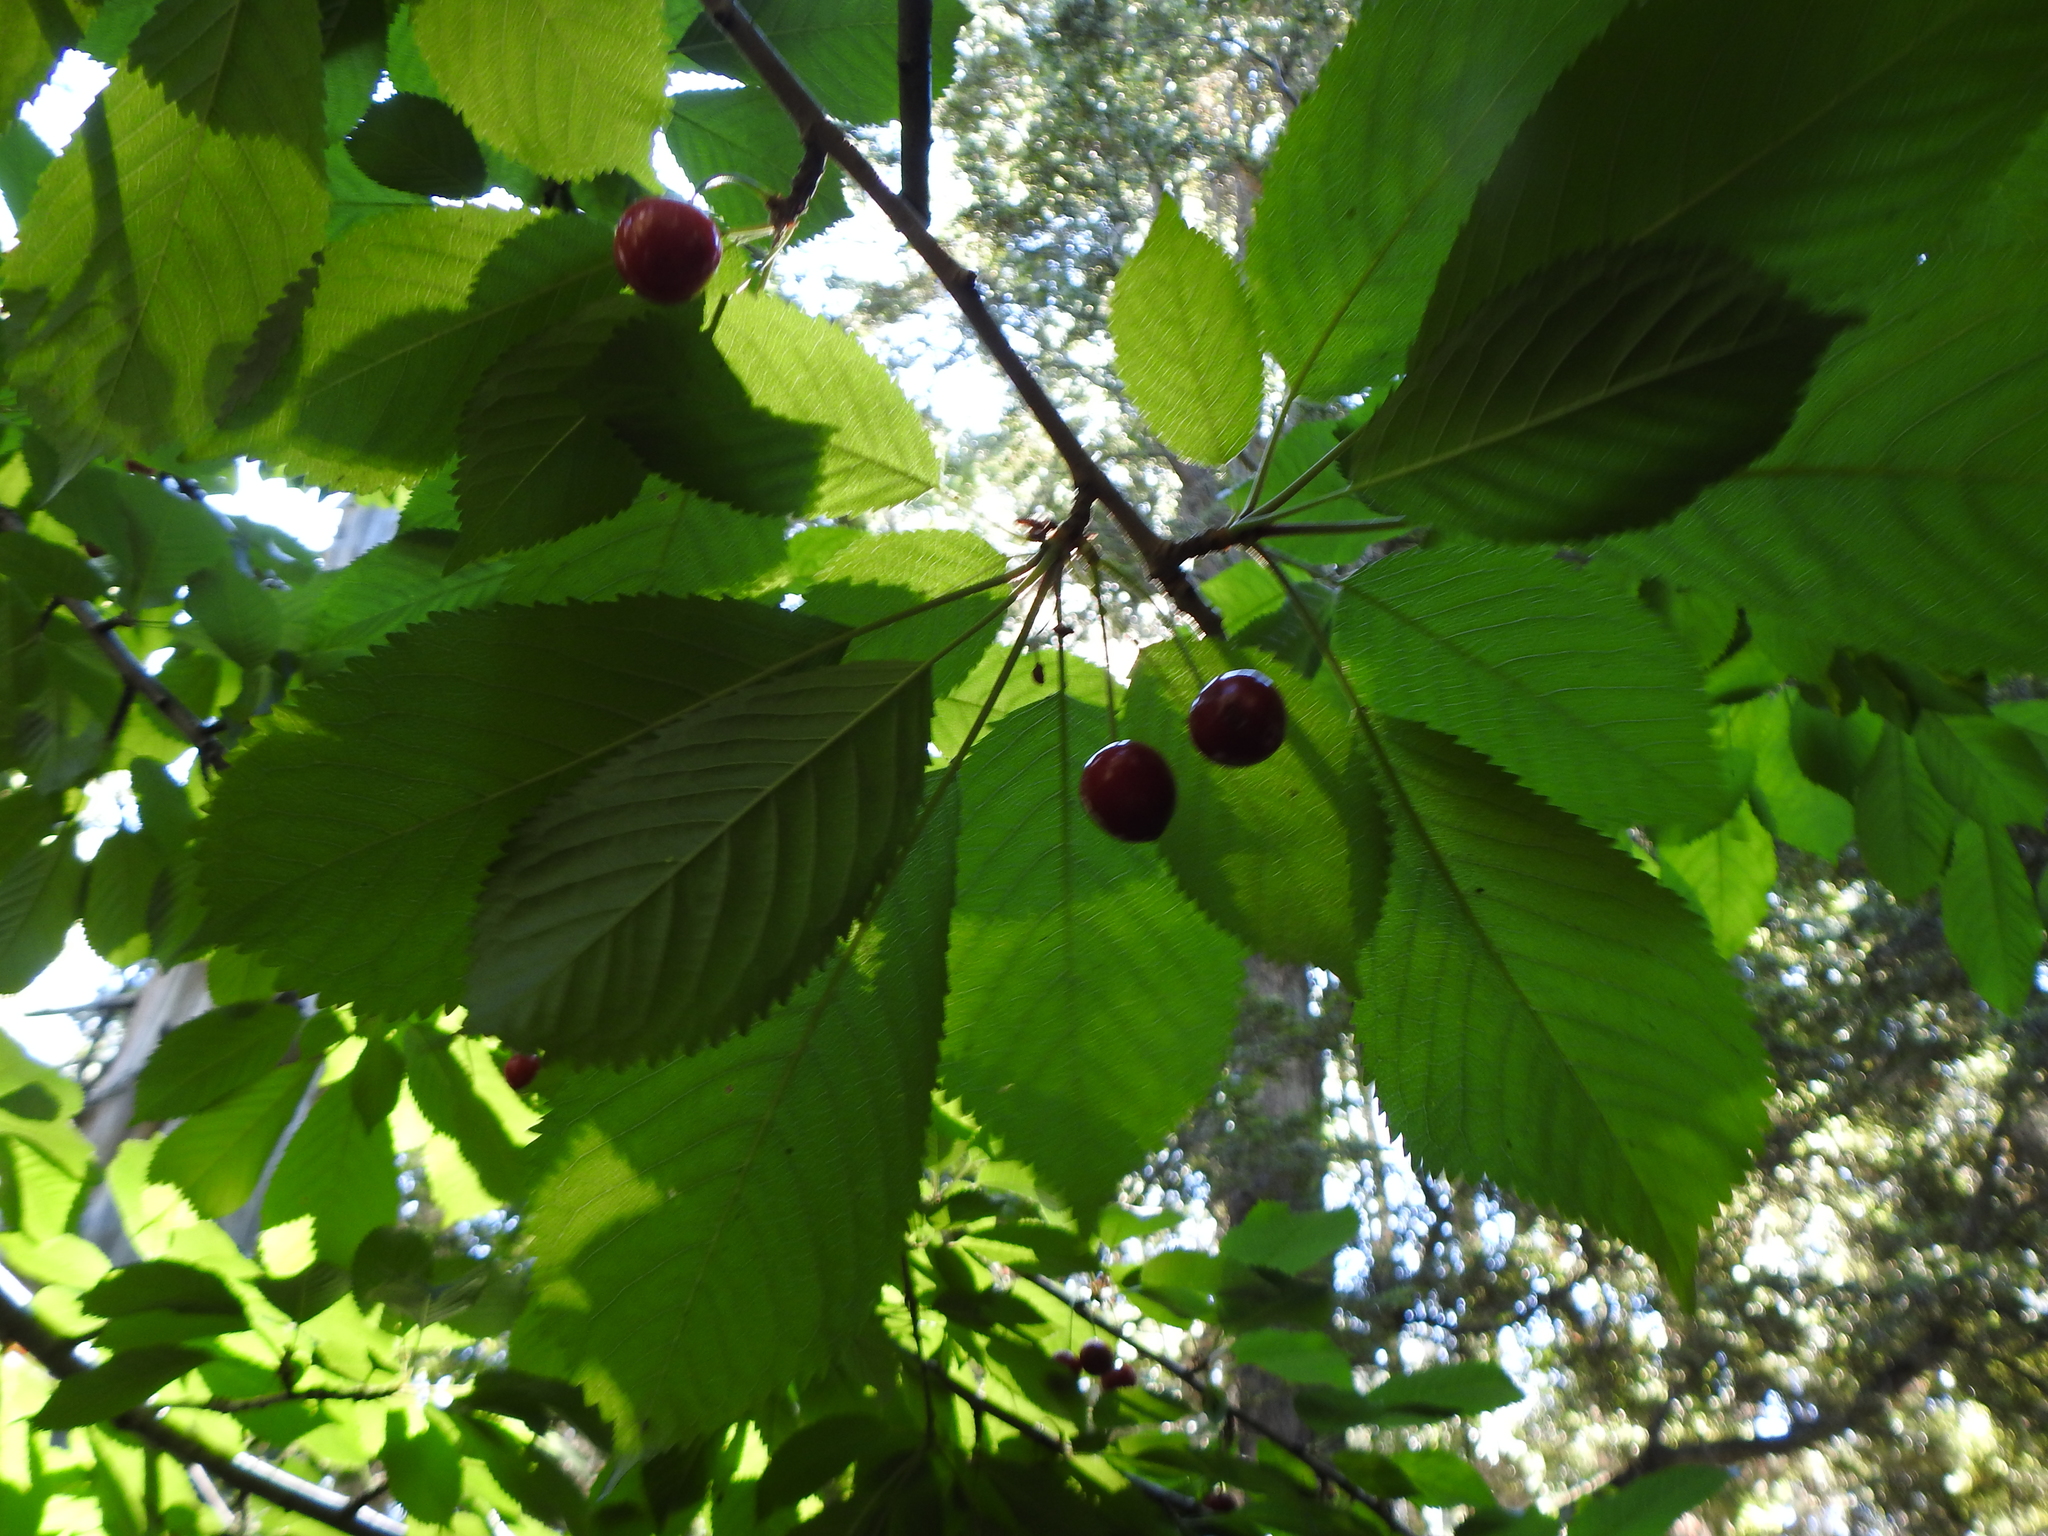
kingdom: Plantae
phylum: Tracheophyta
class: Magnoliopsida
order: Rosales
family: Rosaceae
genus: Prunus
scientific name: Prunus avium
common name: Sweet cherry
